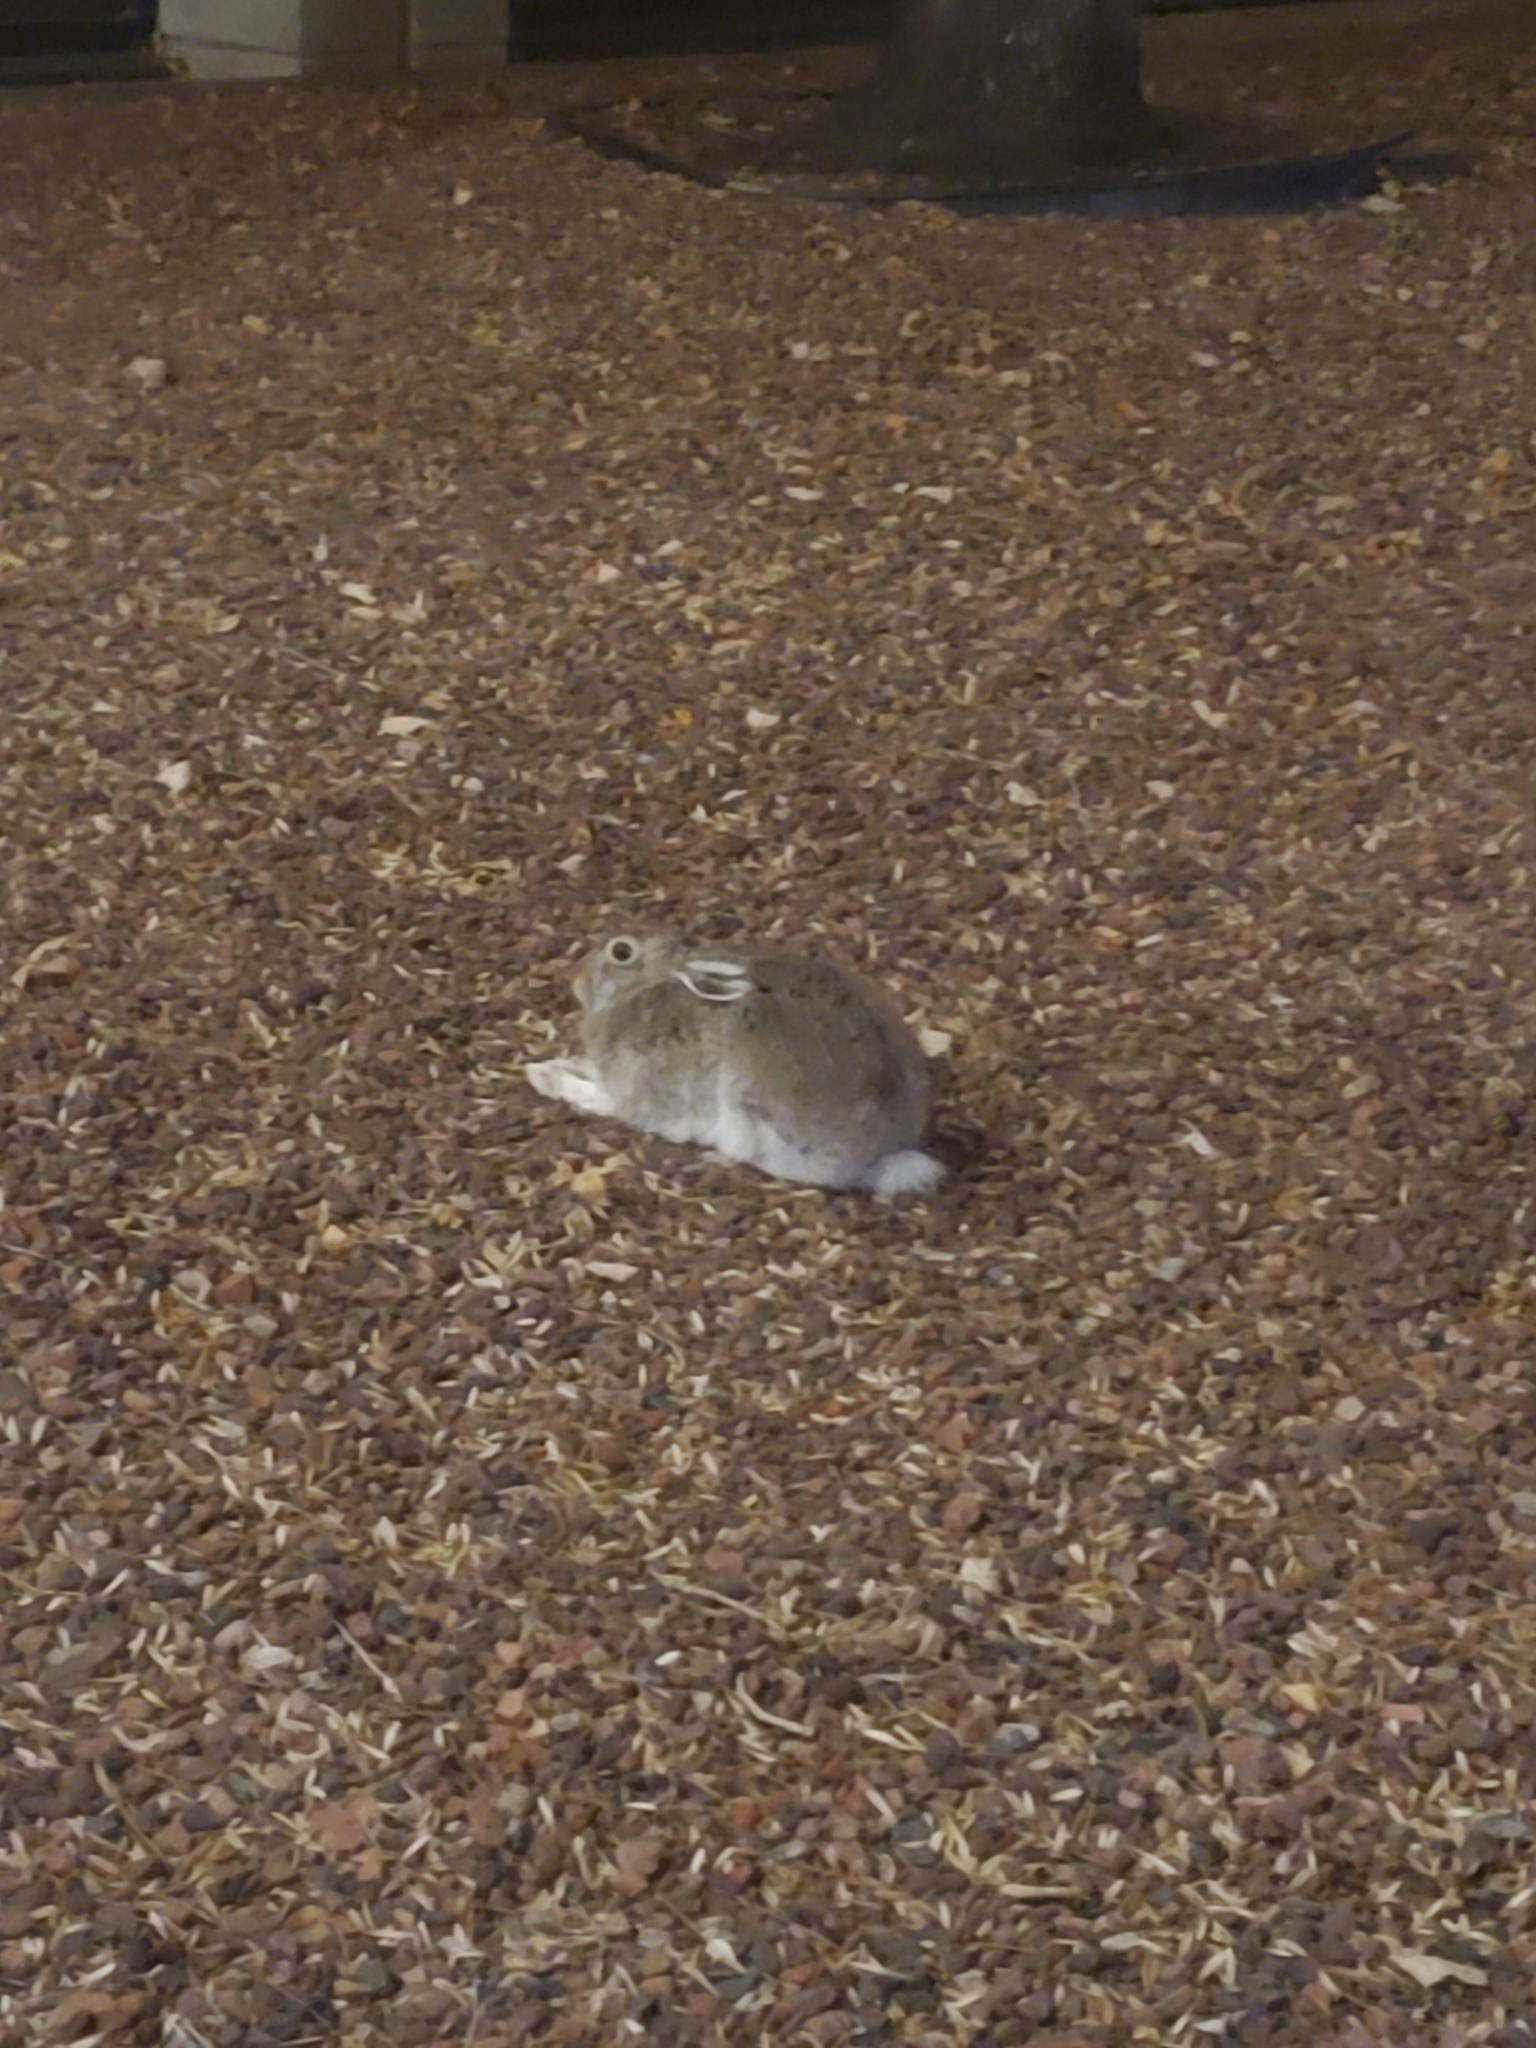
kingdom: Animalia
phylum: Chordata
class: Mammalia
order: Lagomorpha
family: Leporidae
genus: Lepus
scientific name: Lepus townsendii
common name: White-tailed jackrabbit
